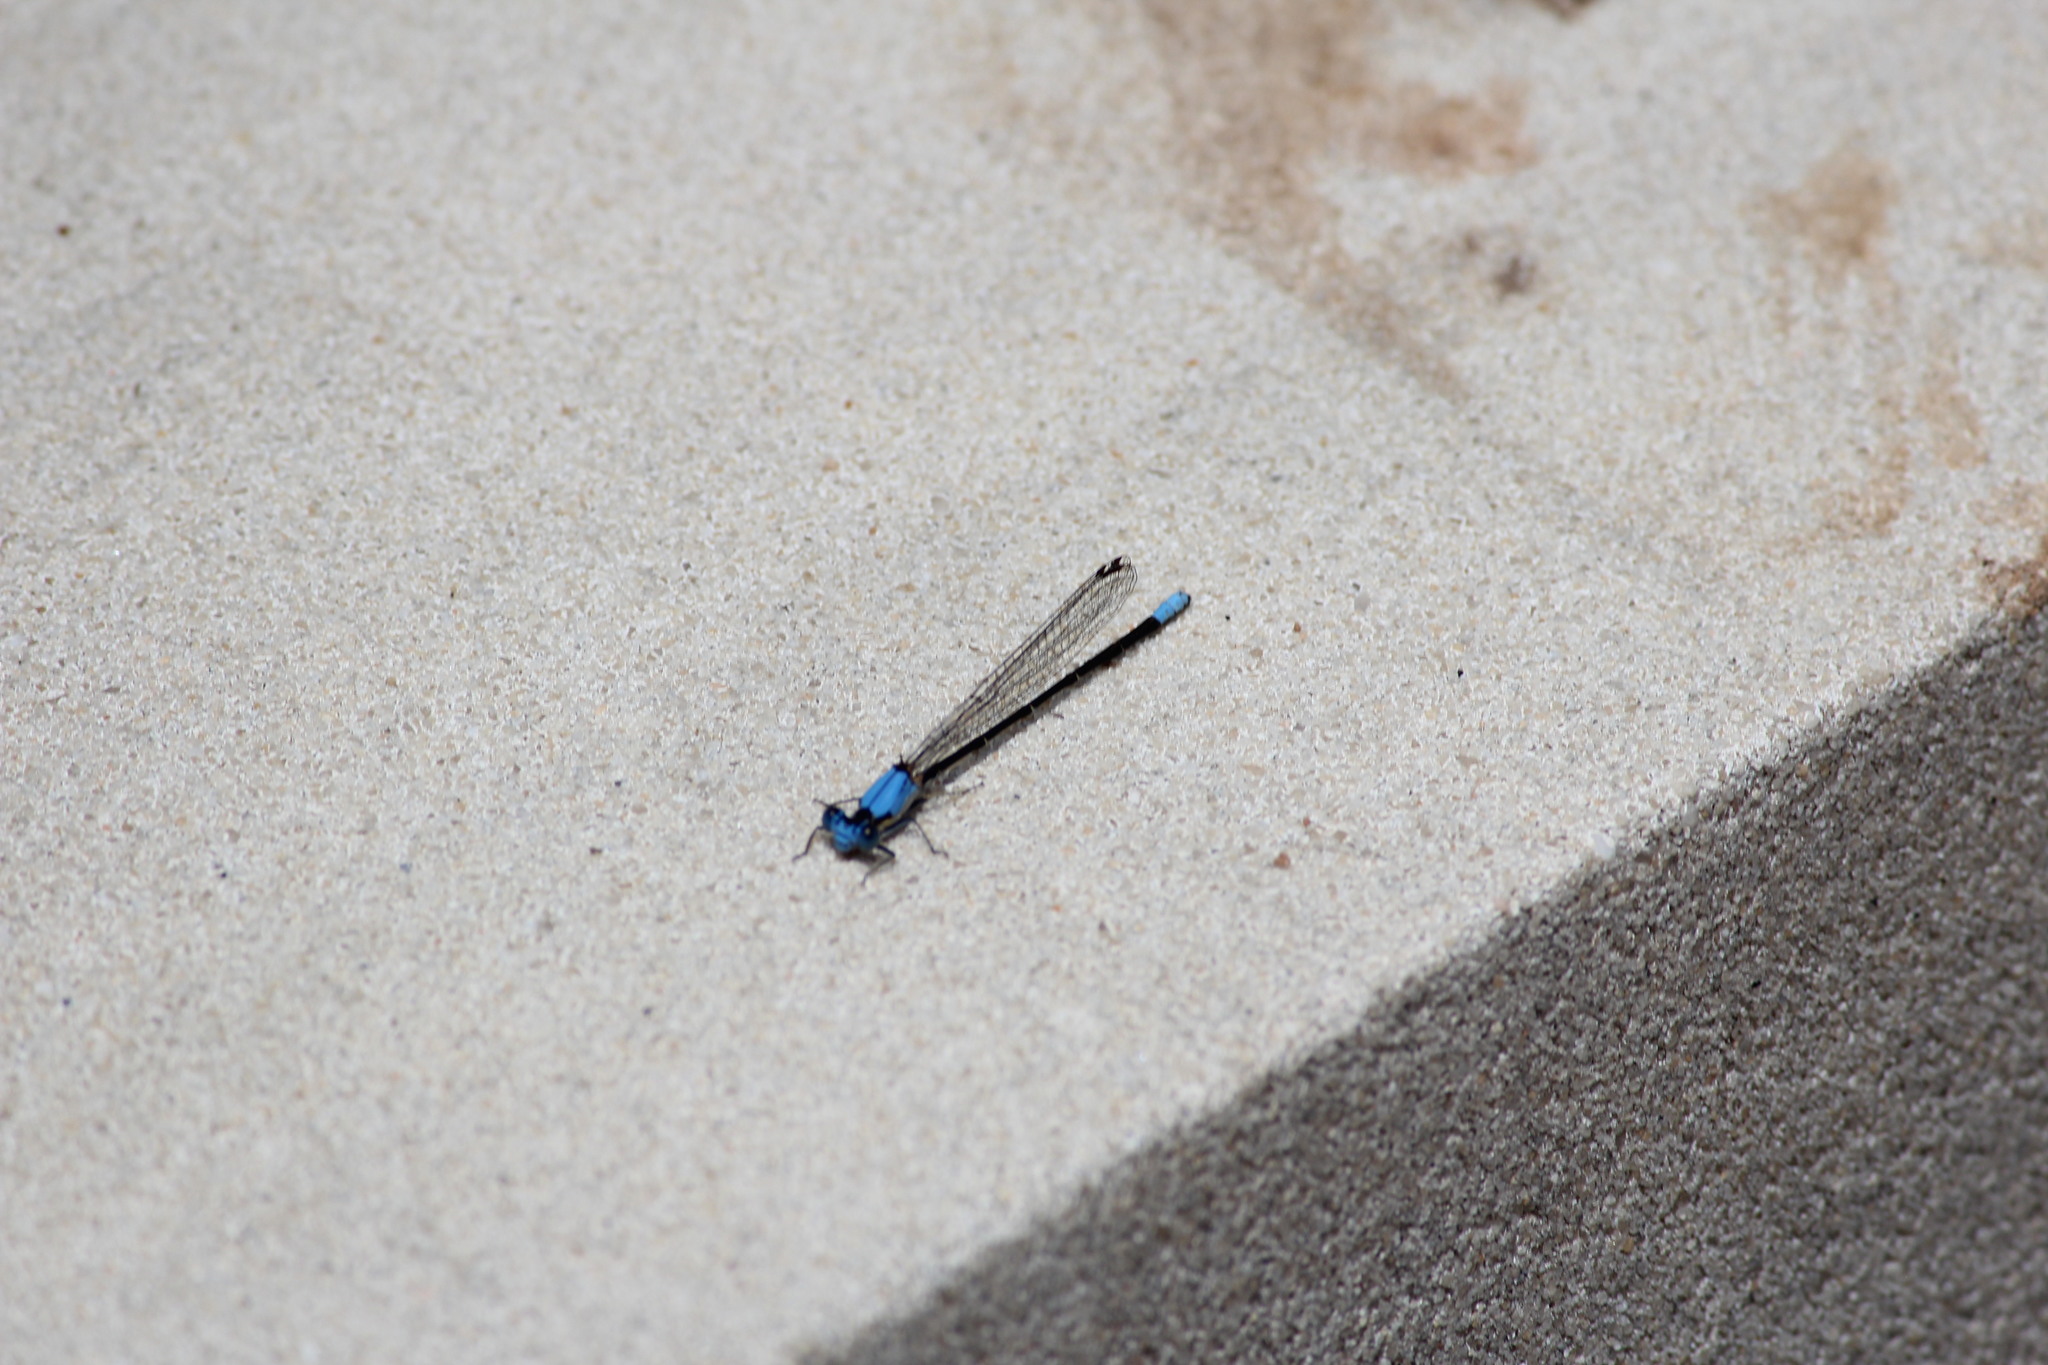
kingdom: Animalia
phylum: Arthropoda
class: Insecta
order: Odonata
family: Coenagrionidae
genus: Argia
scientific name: Argia apicalis
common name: Blue-fronted dancer
